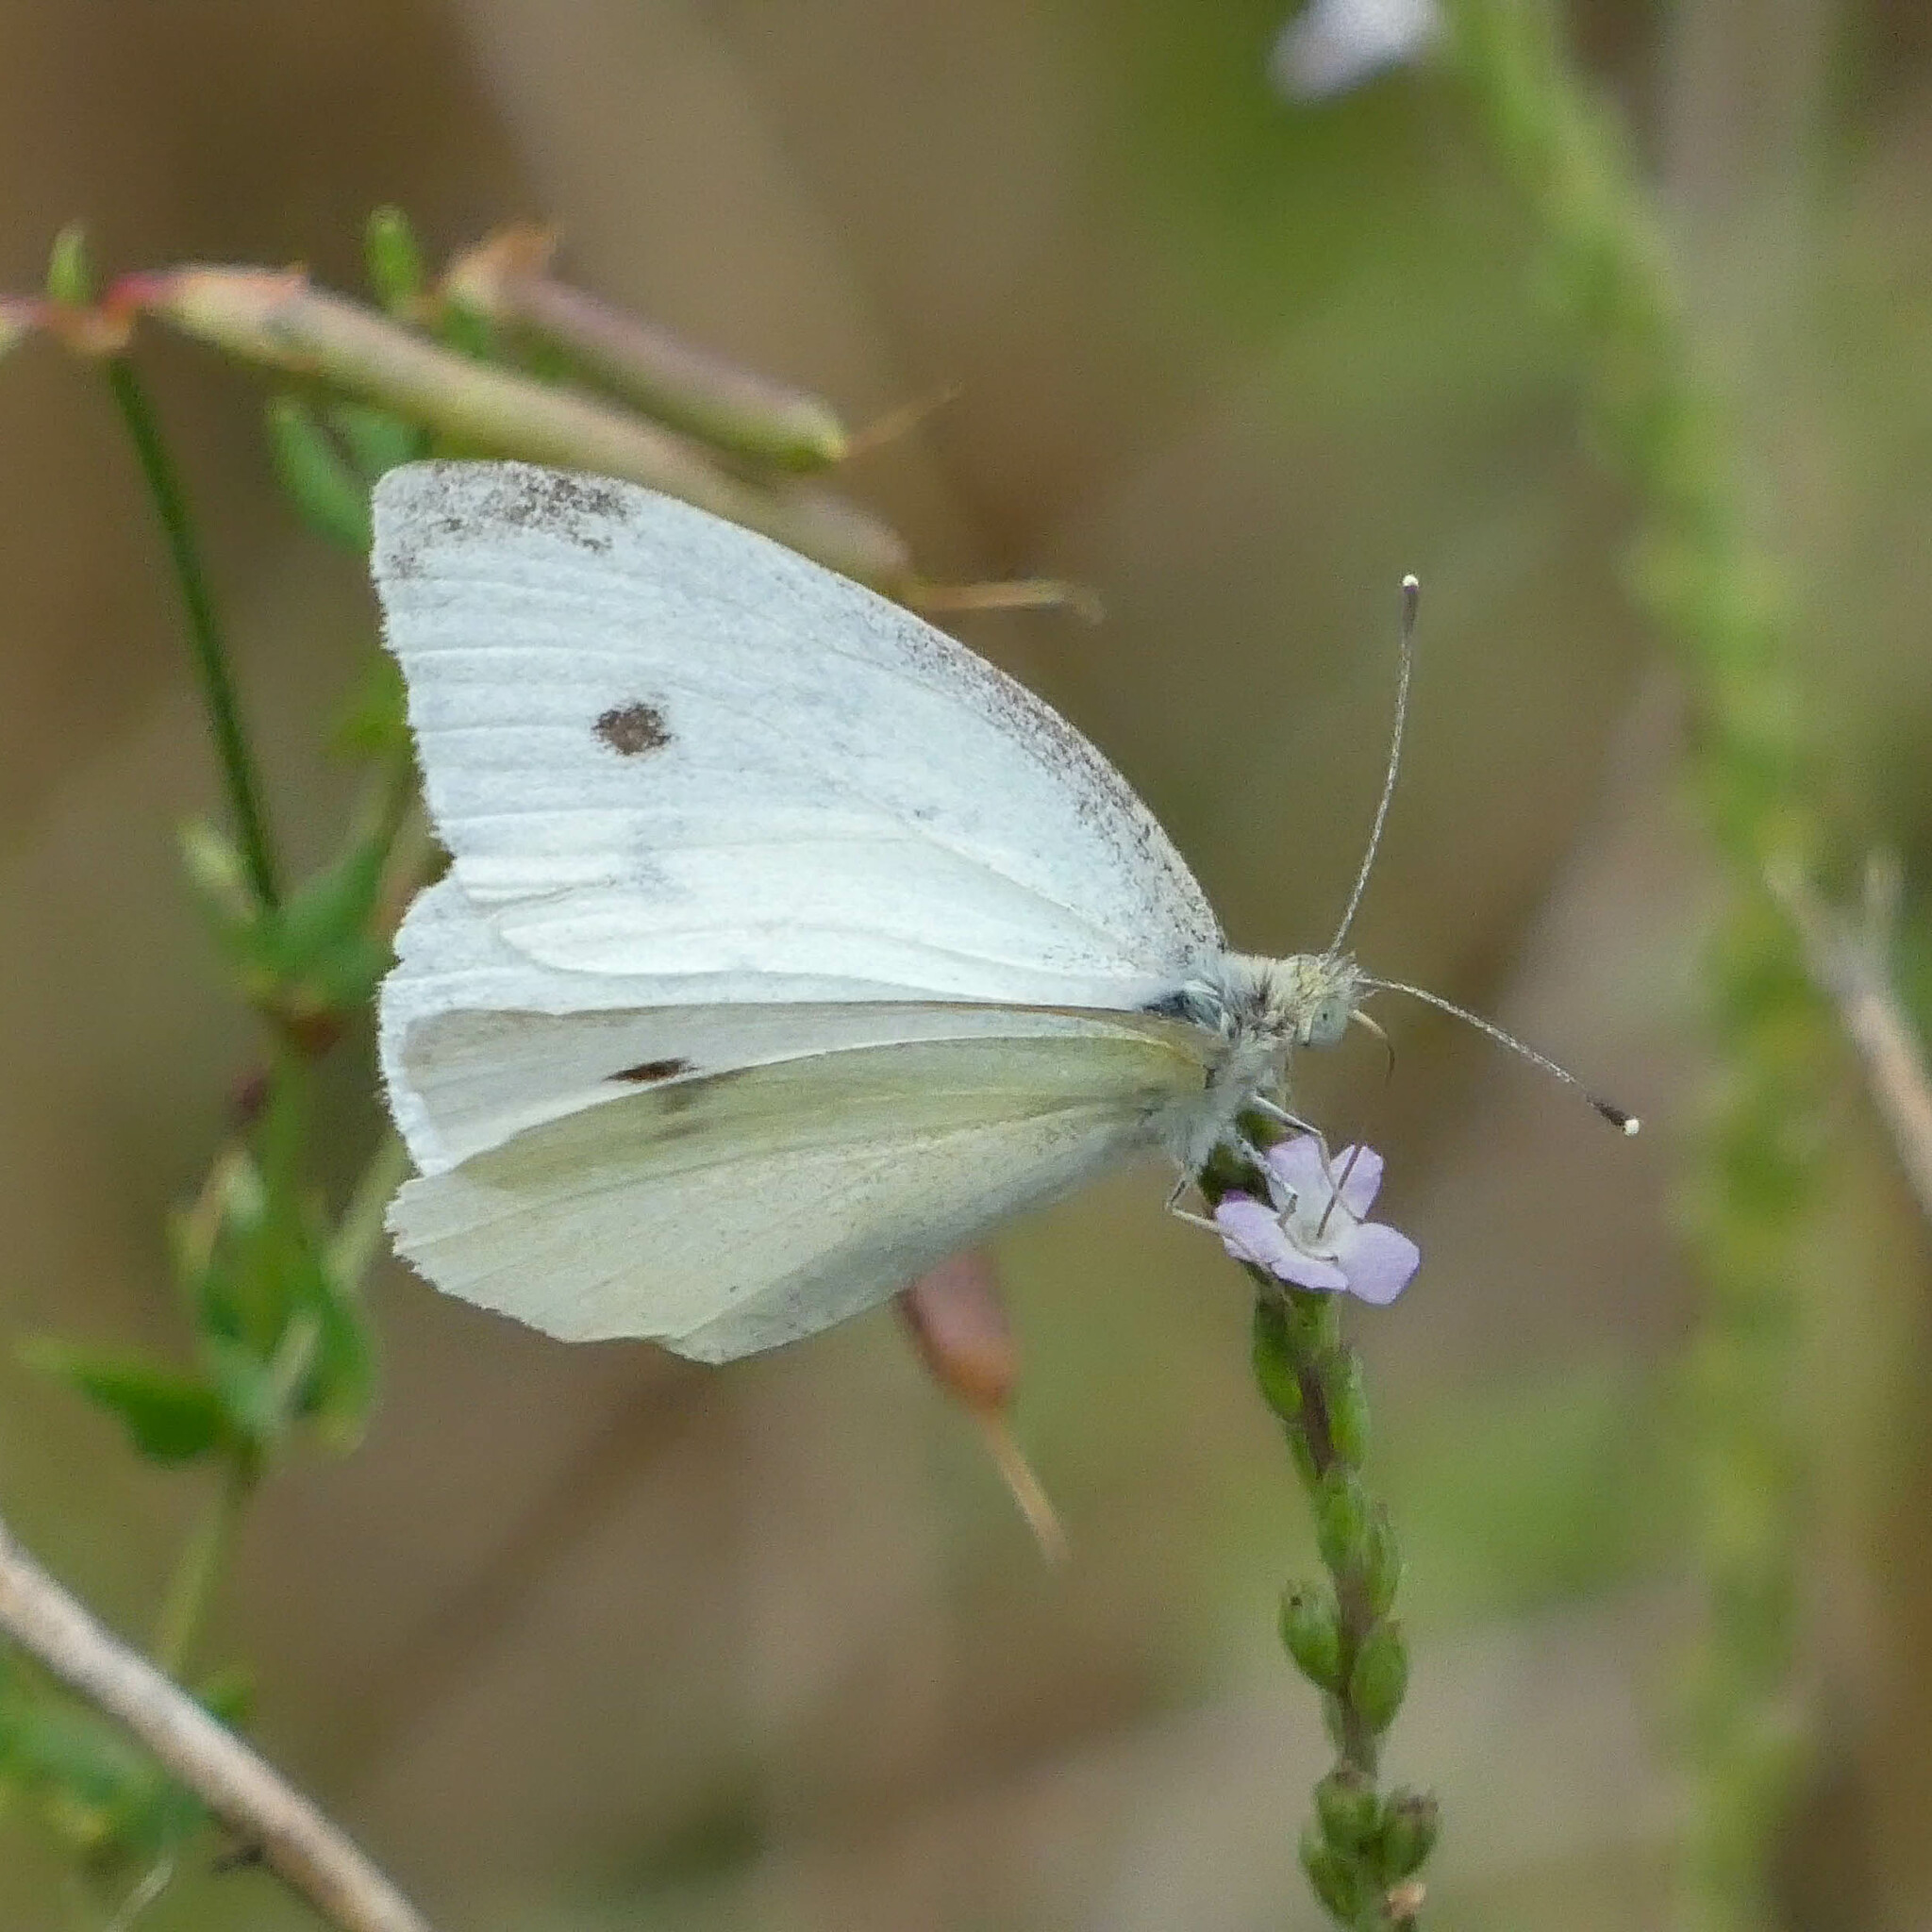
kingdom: Animalia
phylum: Arthropoda
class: Insecta
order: Lepidoptera
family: Pieridae
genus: Pieris
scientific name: Pieris rapae
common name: Small white
